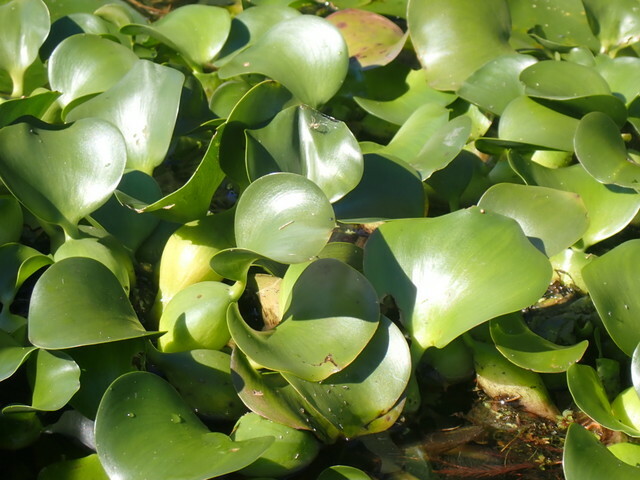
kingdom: Plantae
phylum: Tracheophyta
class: Liliopsida
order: Commelinales
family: Pontederiaceae
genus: Pontederia
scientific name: Pontederia crassipes
